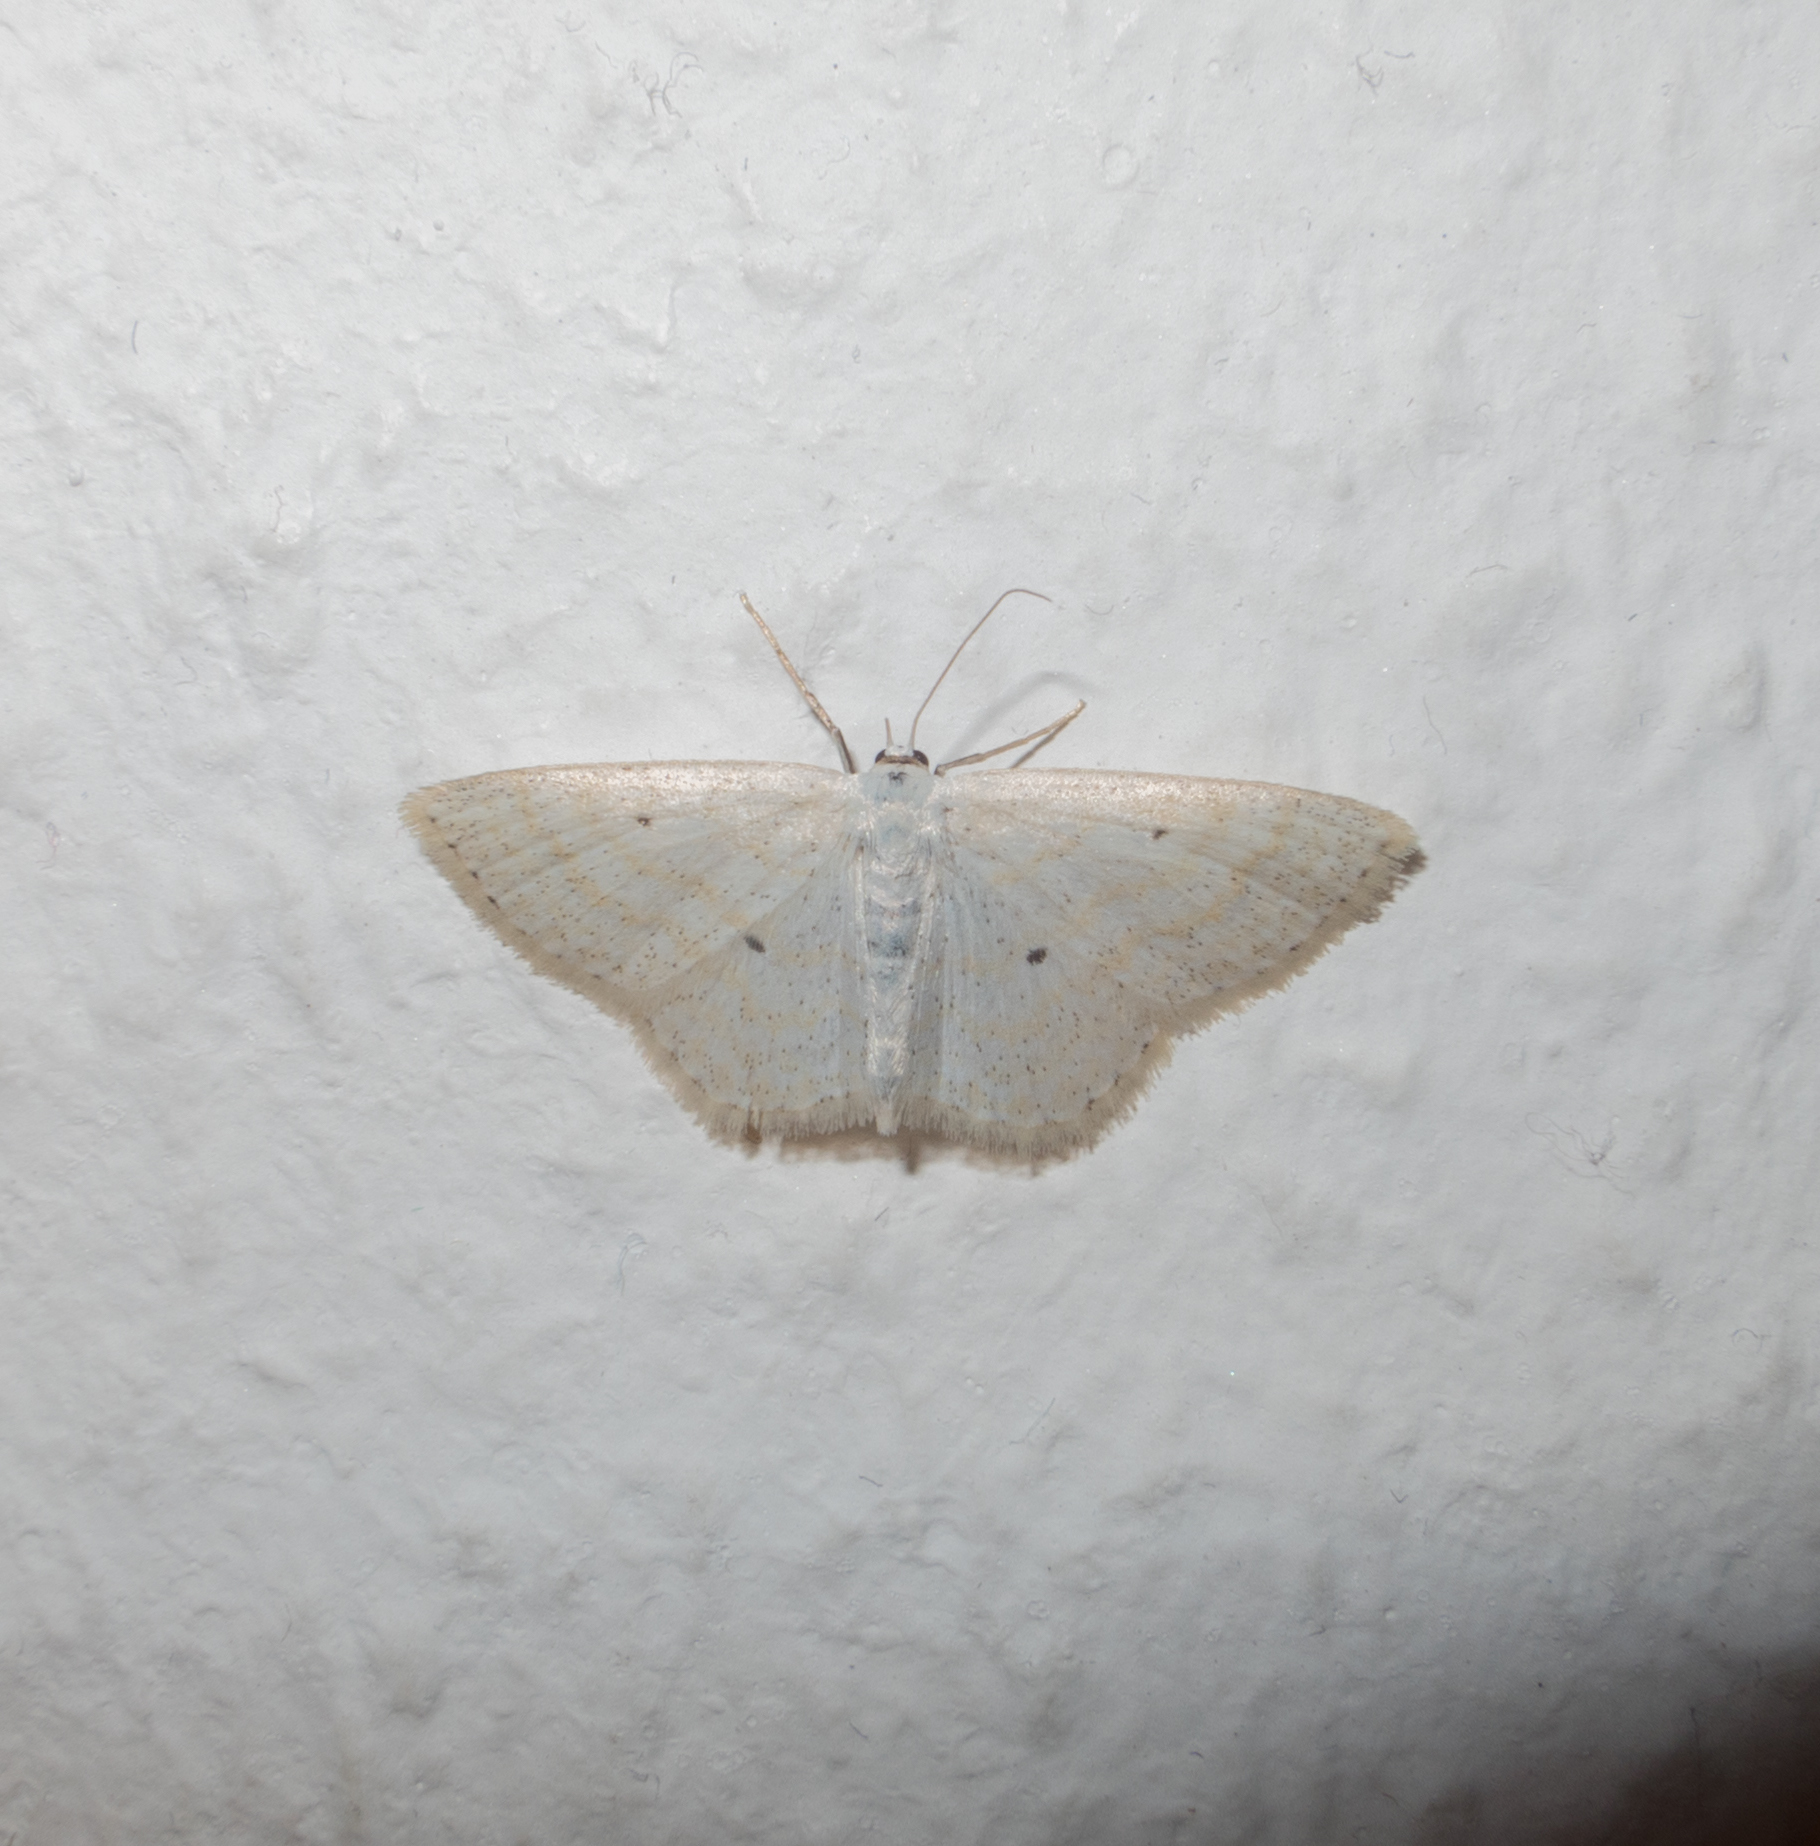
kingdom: Animalia
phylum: Arthropoda
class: Insecta
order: Lepidoptera
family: Geometridae
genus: Scopula
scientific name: Scopula immutata
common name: Lesser cream wave
